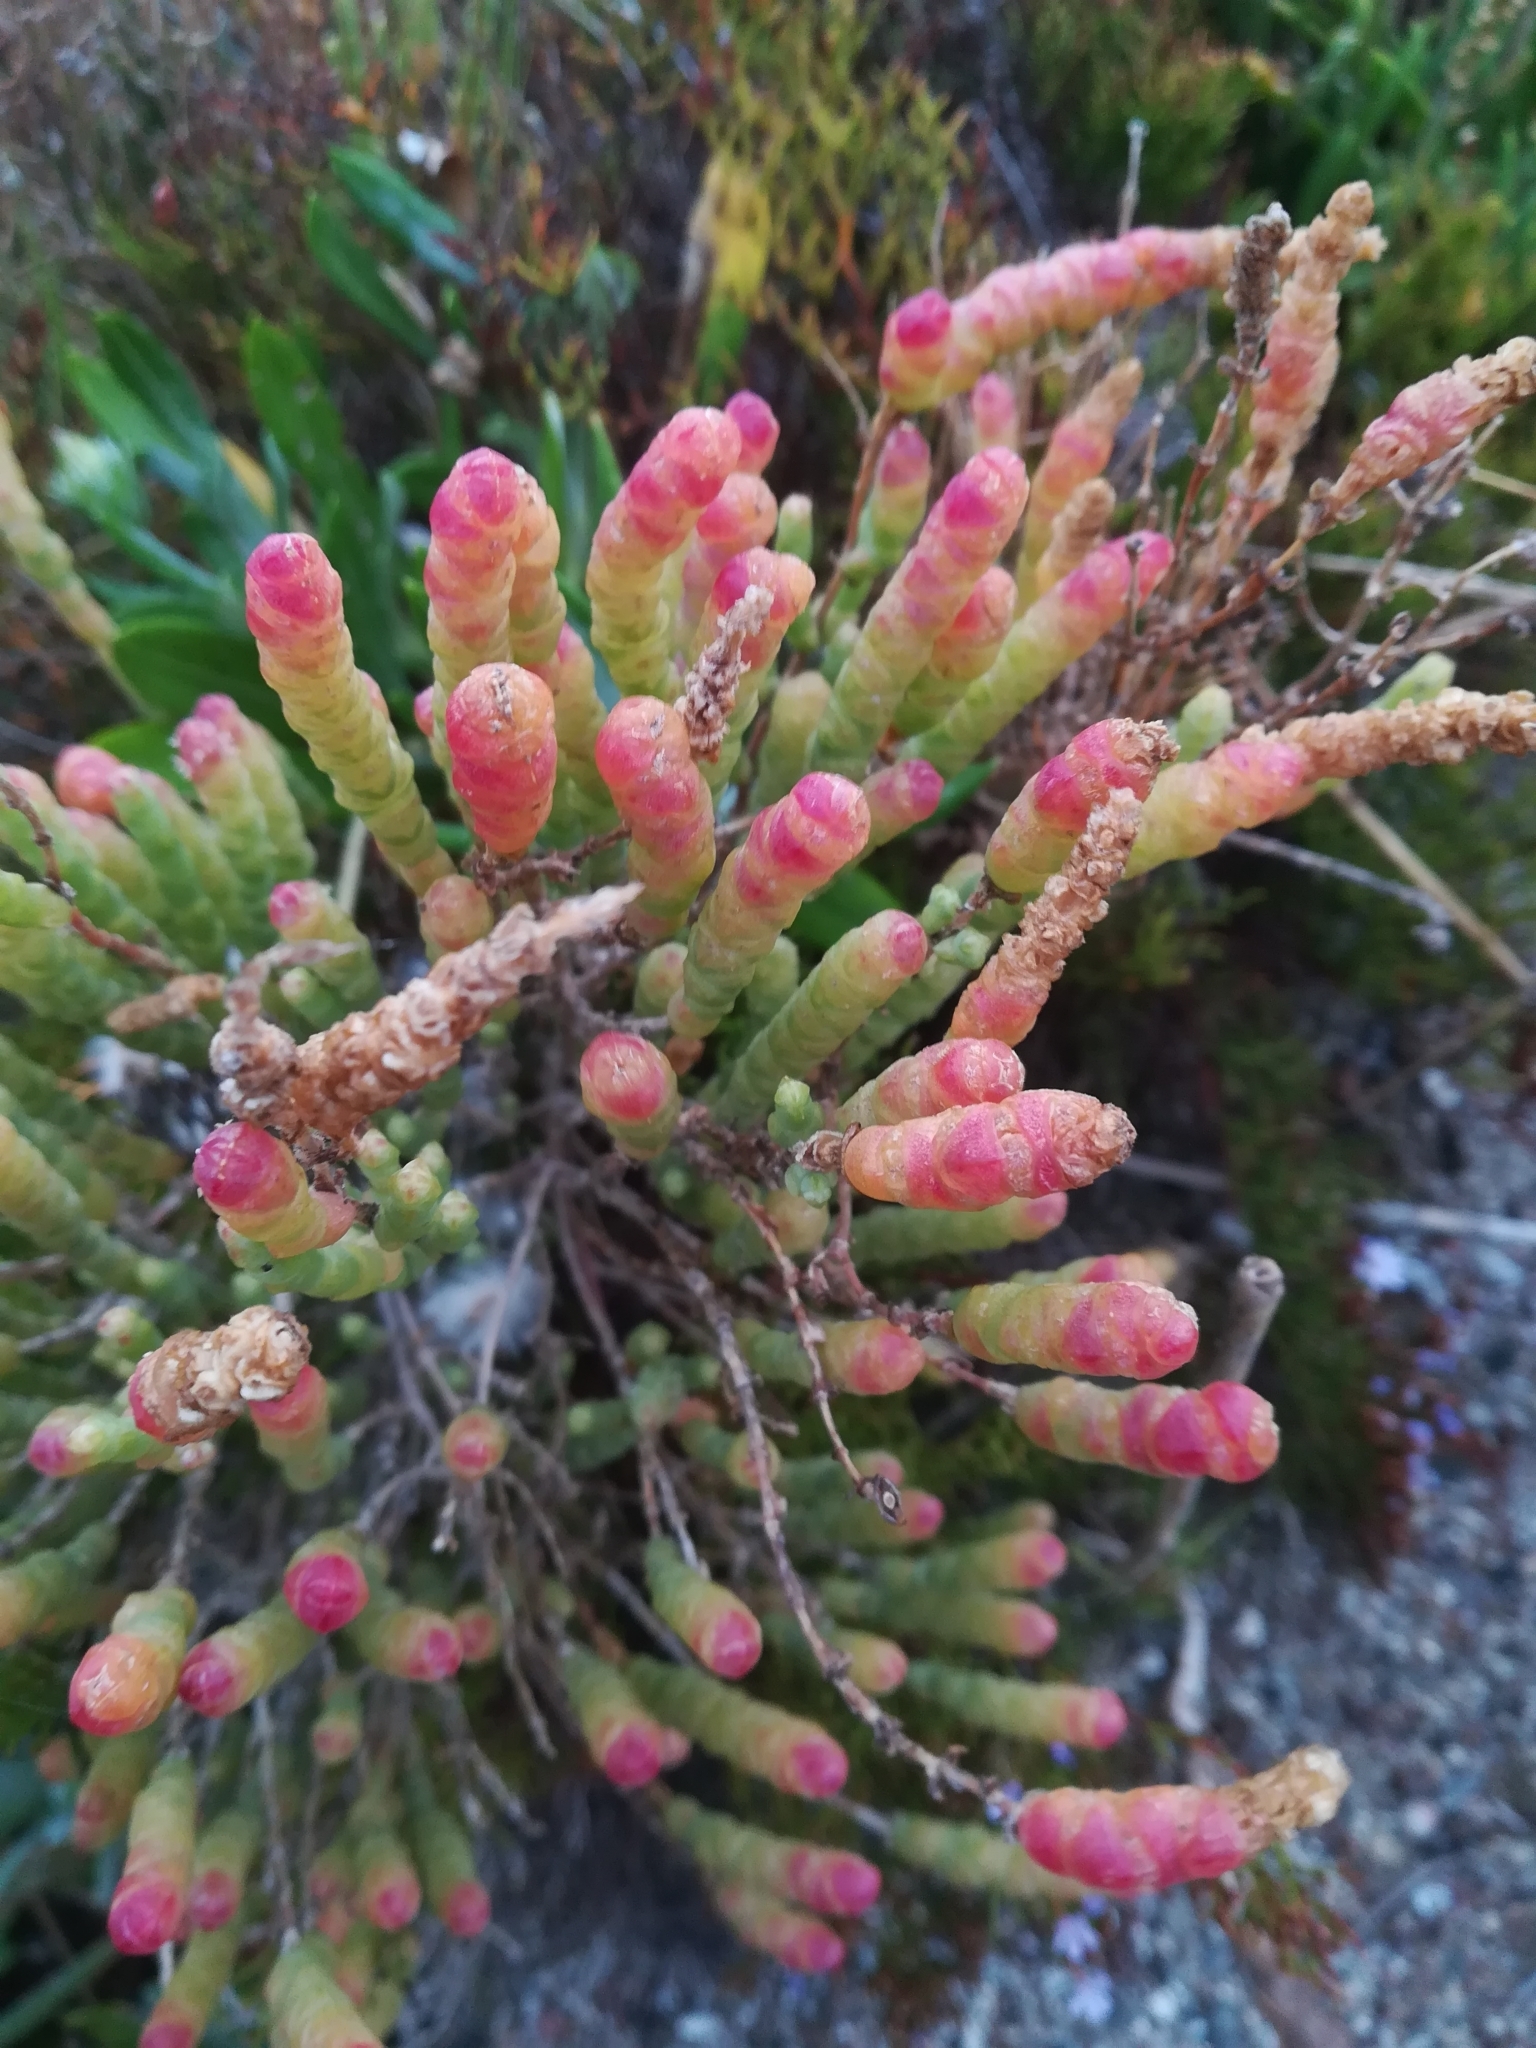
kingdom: Plantae
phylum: Tracheophyta
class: Magnoliopsida
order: Caryophyllales
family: Amaranthaceae
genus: Salicornia
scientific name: Salicornia littorea
